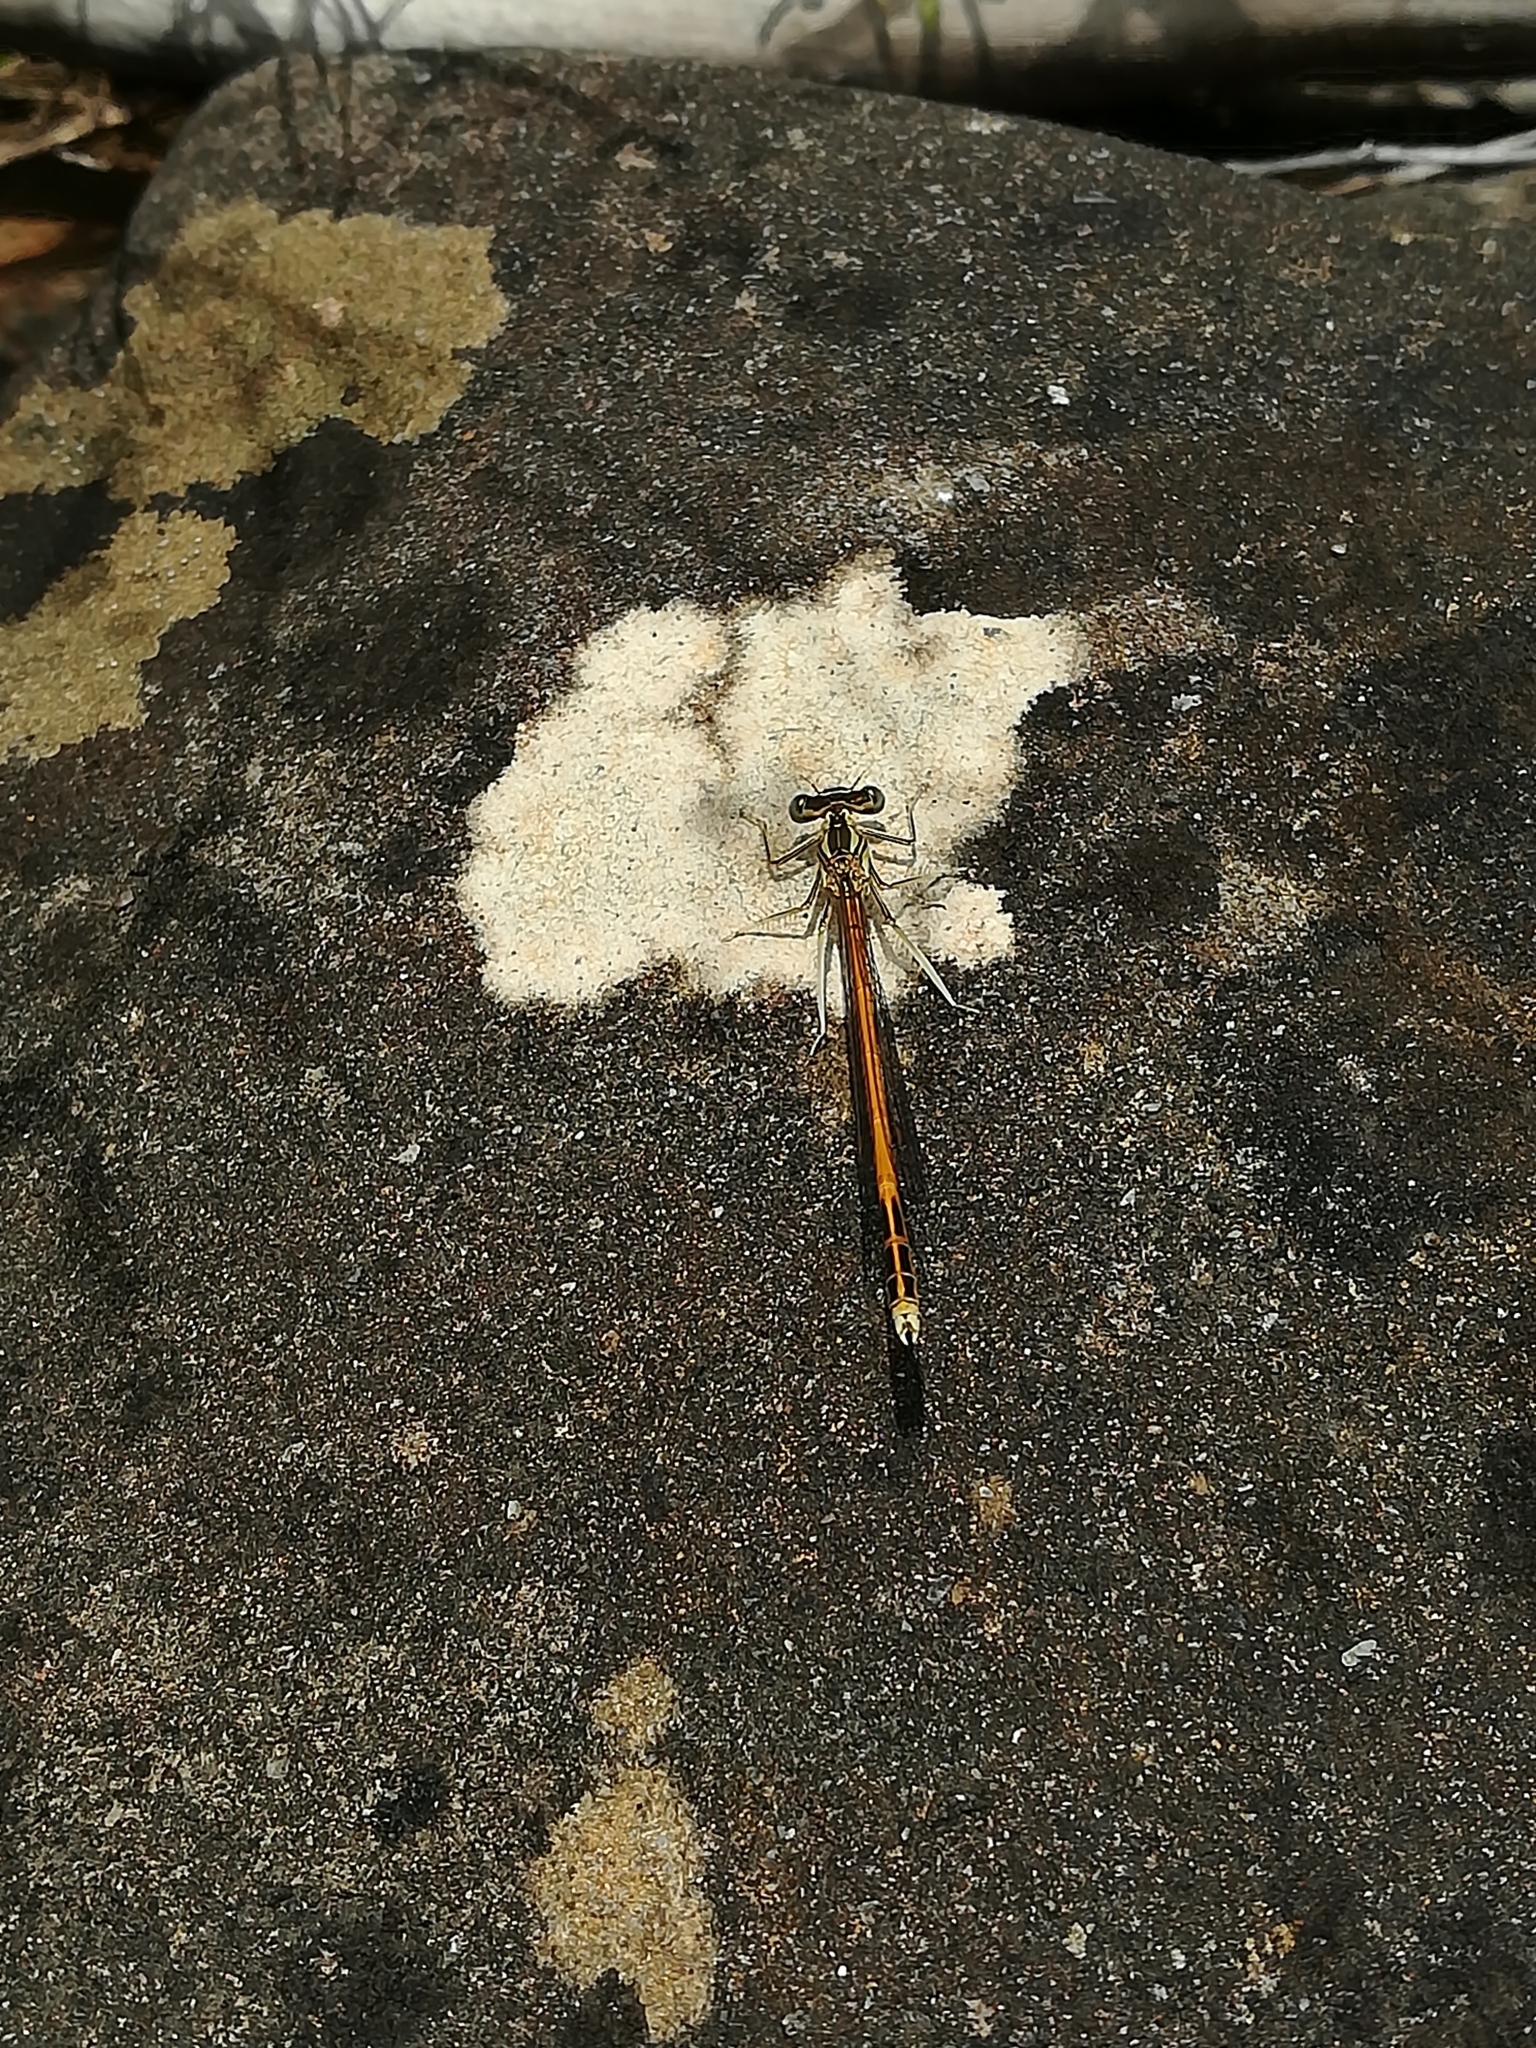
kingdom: Animalia
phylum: Arthropoda
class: Insecta
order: Odonata
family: Platycnemididae
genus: Platycnemis
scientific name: Platycnemis acutipennis
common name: Orange featherleg
